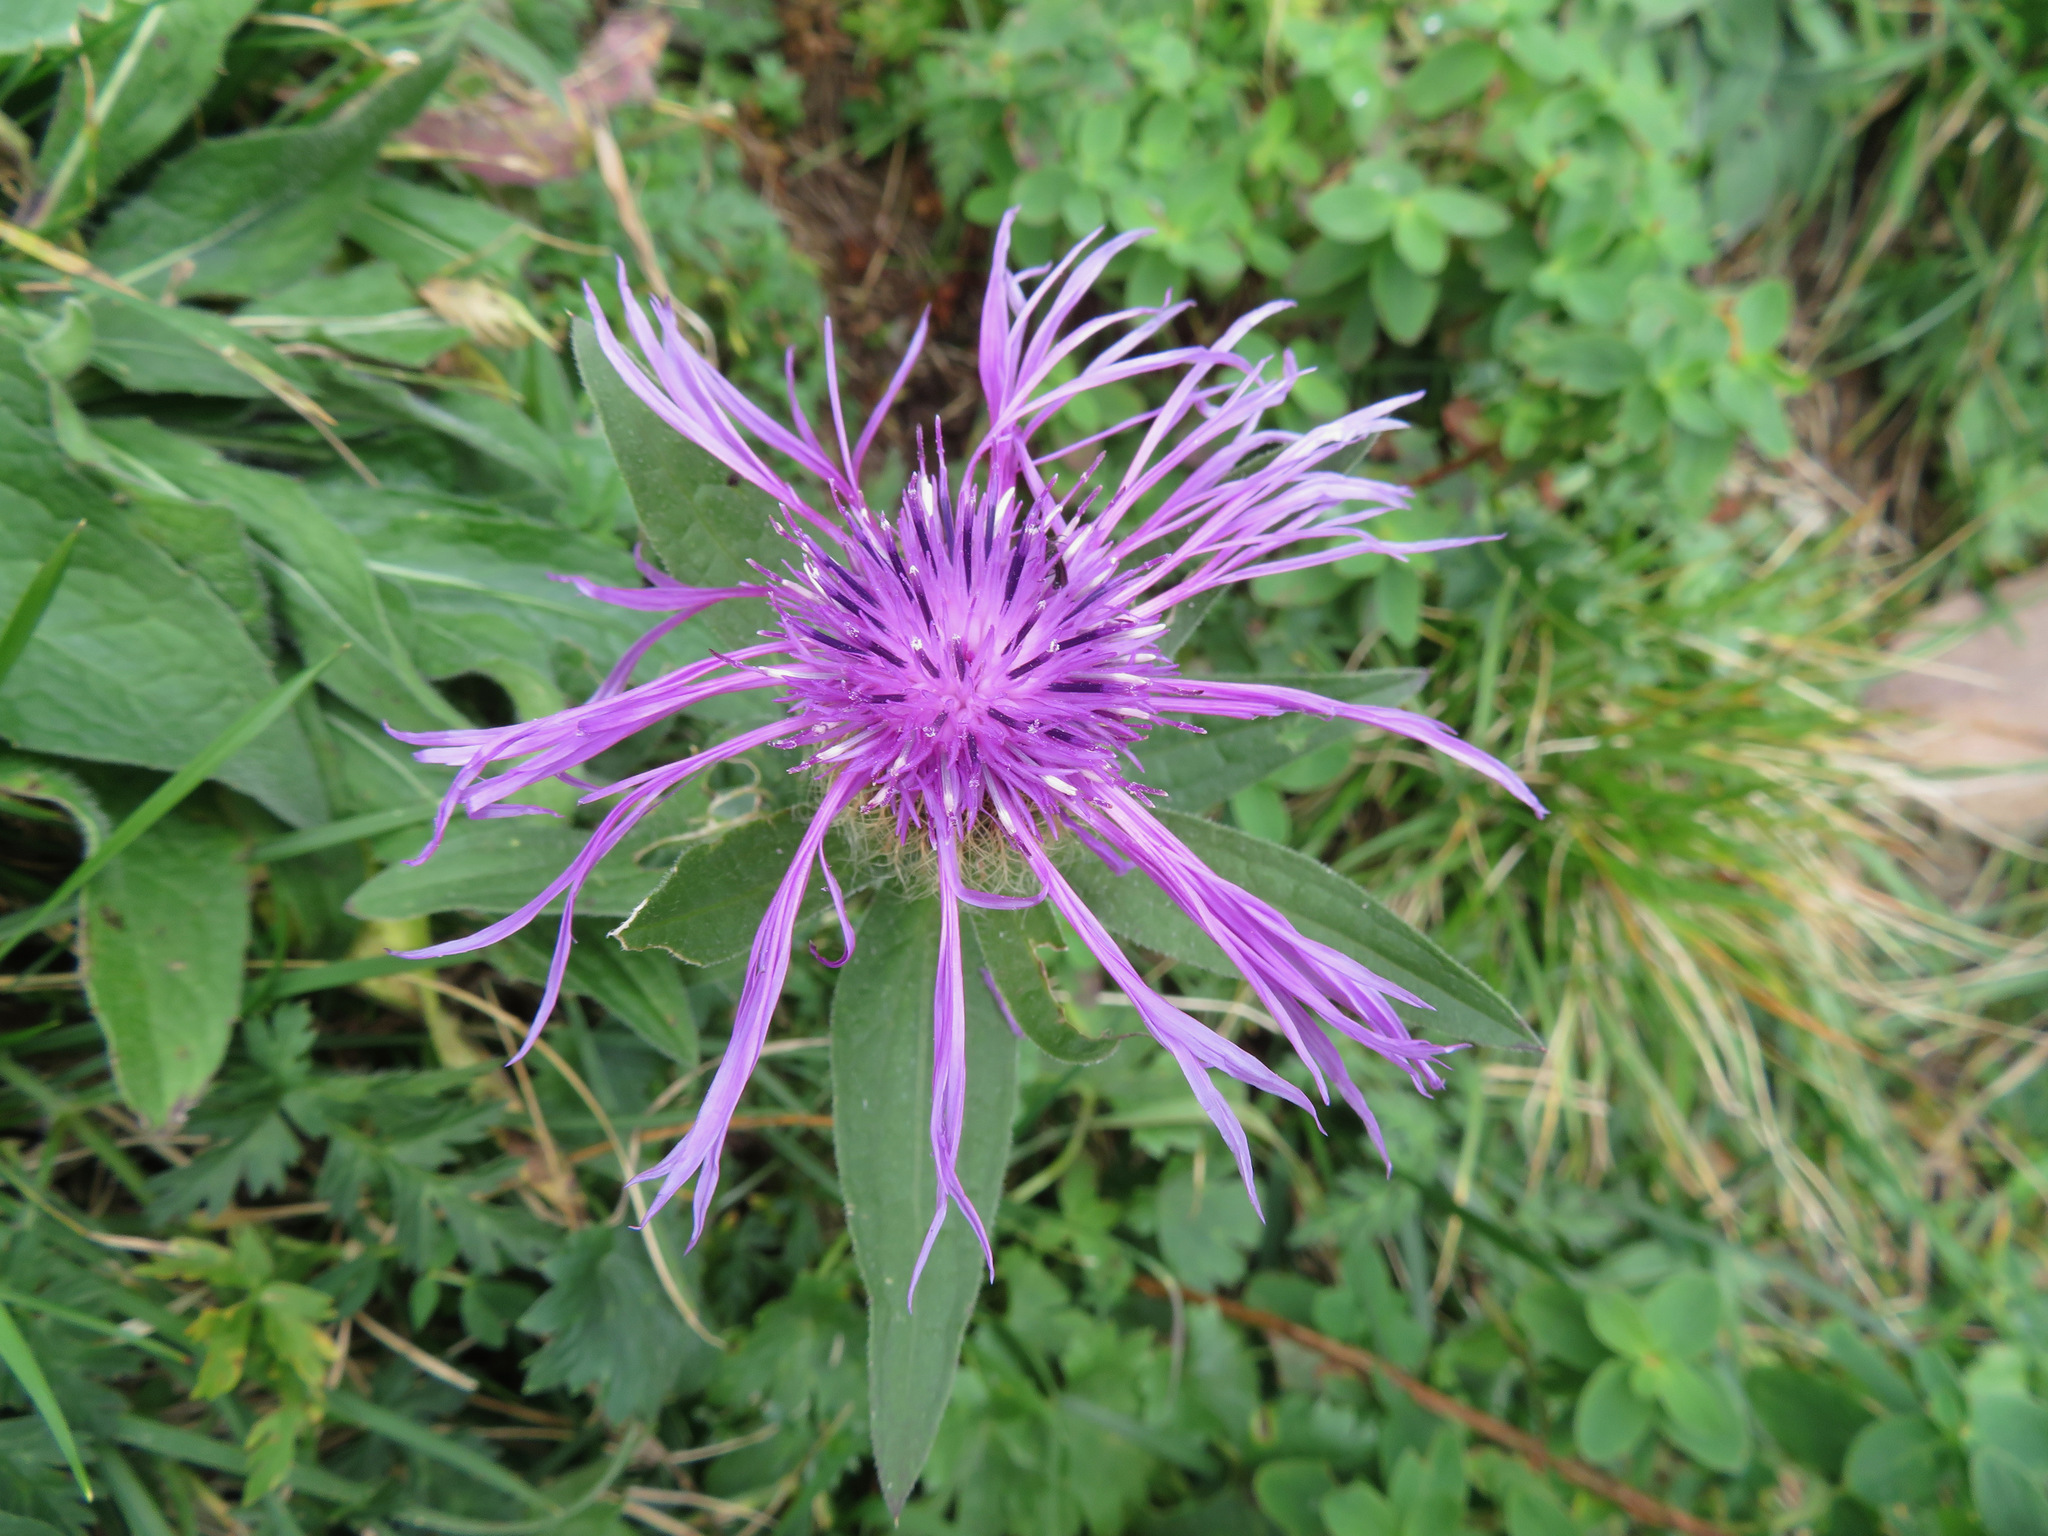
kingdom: Plantae
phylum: Tracheophyta
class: Magnoliopsida
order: Asterales
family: Asteraceae
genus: Centaurea
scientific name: Centaurea nervosa
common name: Singleflower knapweed
